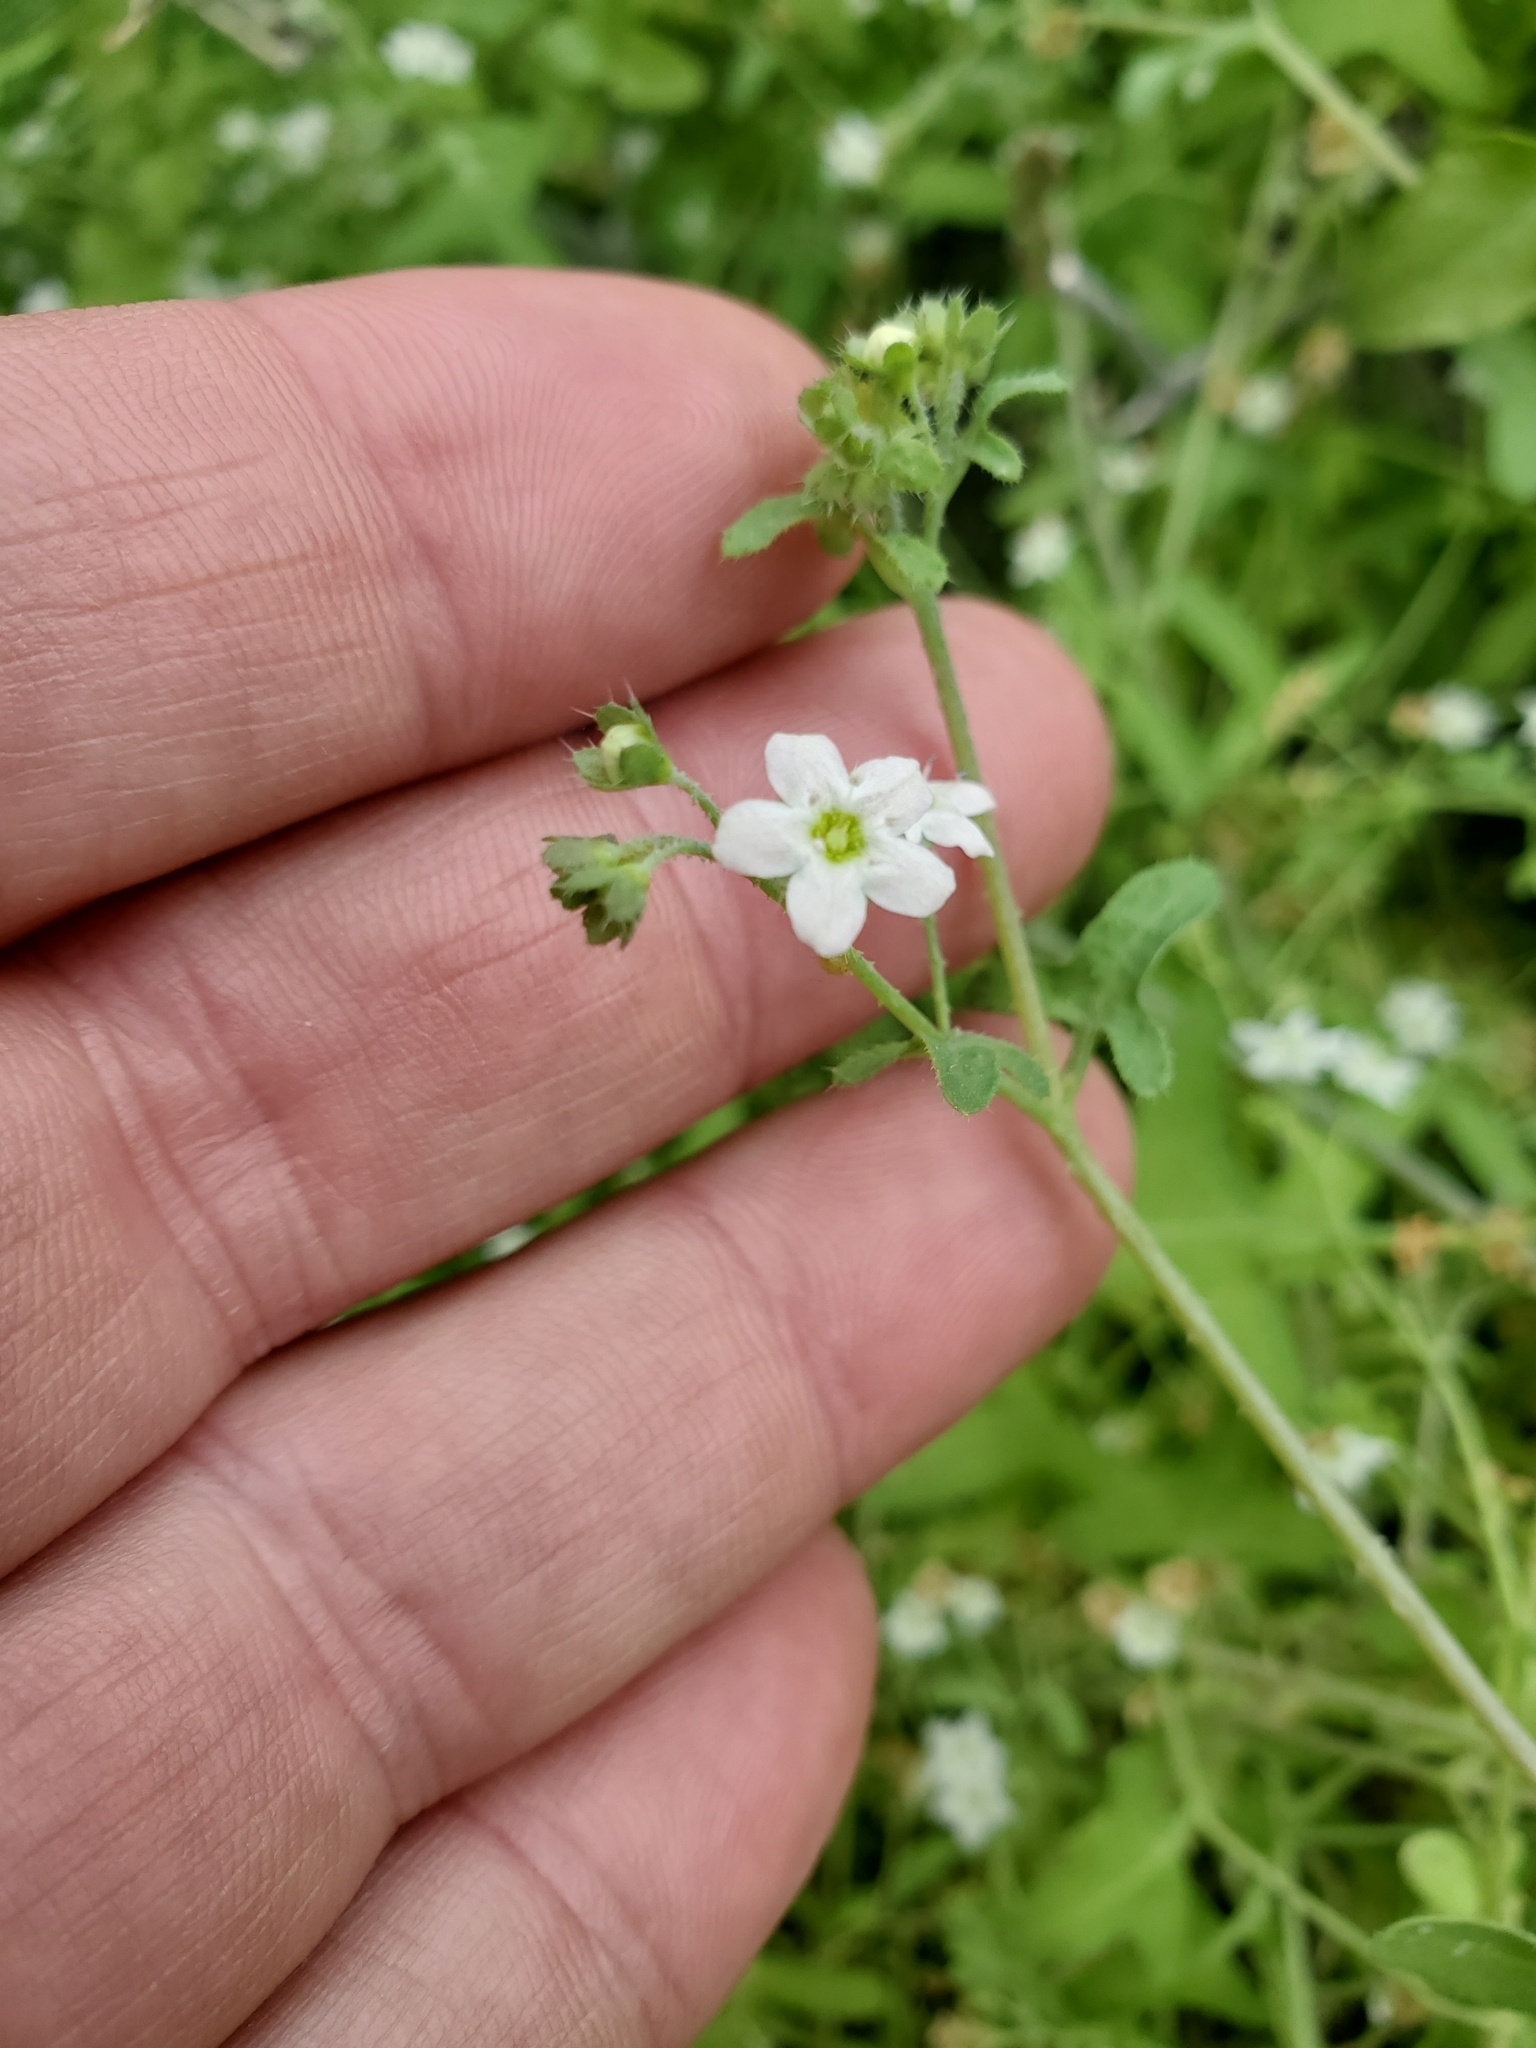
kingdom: Plantae
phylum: Tracheophyta
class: Magnoliopsida
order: Boraginales
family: Hydrophyllaceae
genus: Pholistoma
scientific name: Pholistoma membranaceum
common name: White fiesta-flower
